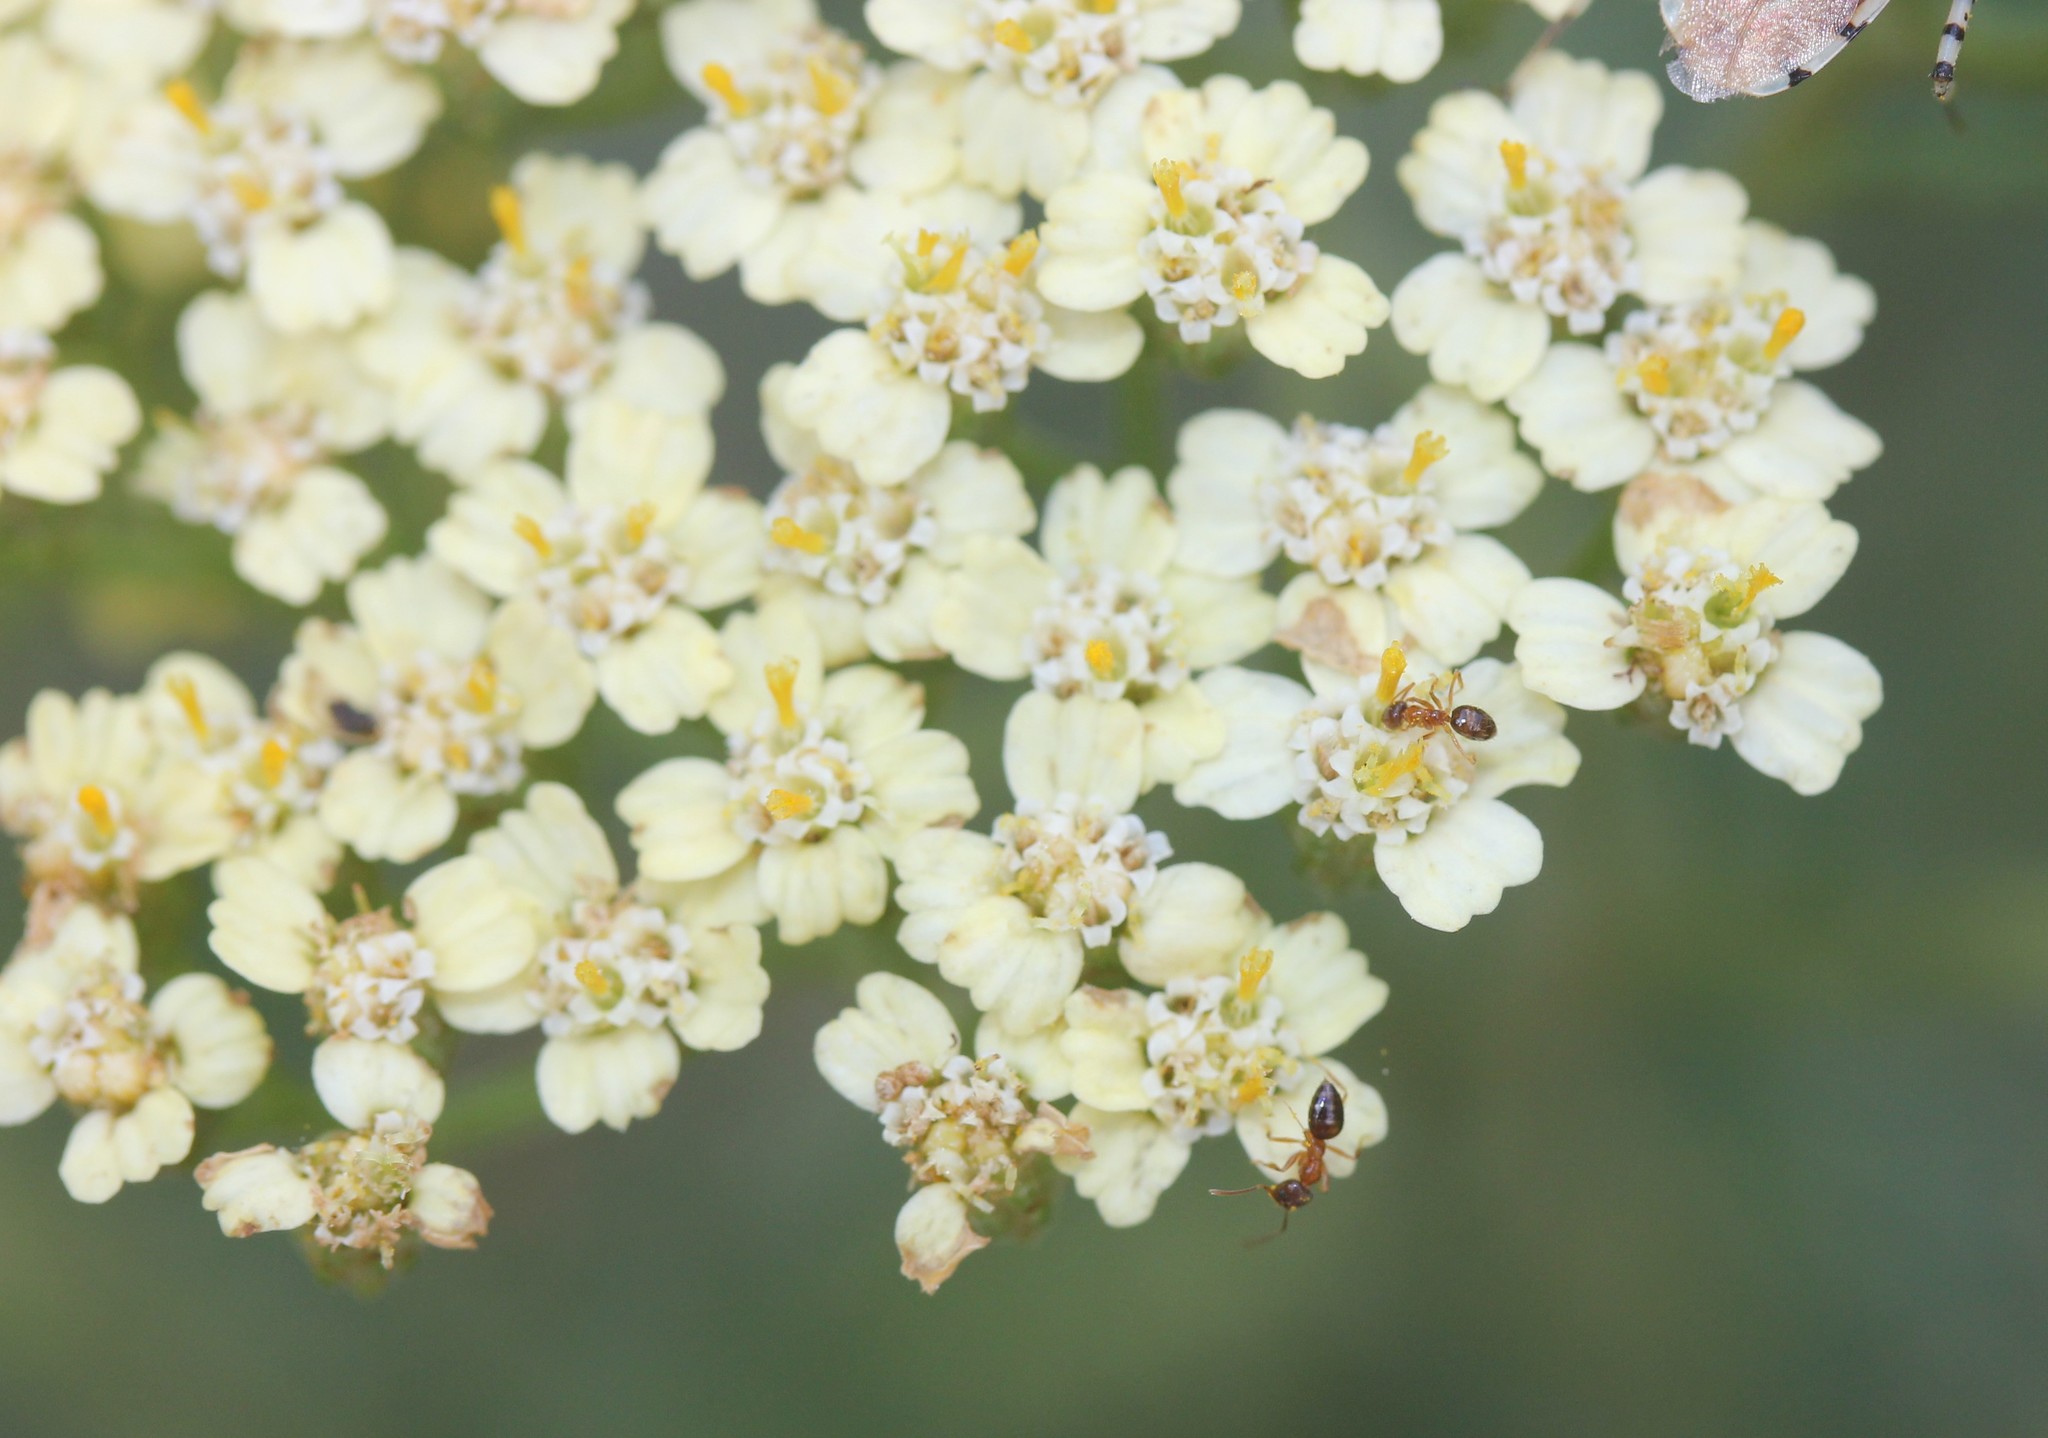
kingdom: Plantae
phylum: Tracheophyta
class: Magnoliopsida
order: Asterales
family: Asteraceae
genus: Achillea
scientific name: Achillea millefolium
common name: Yarrow
